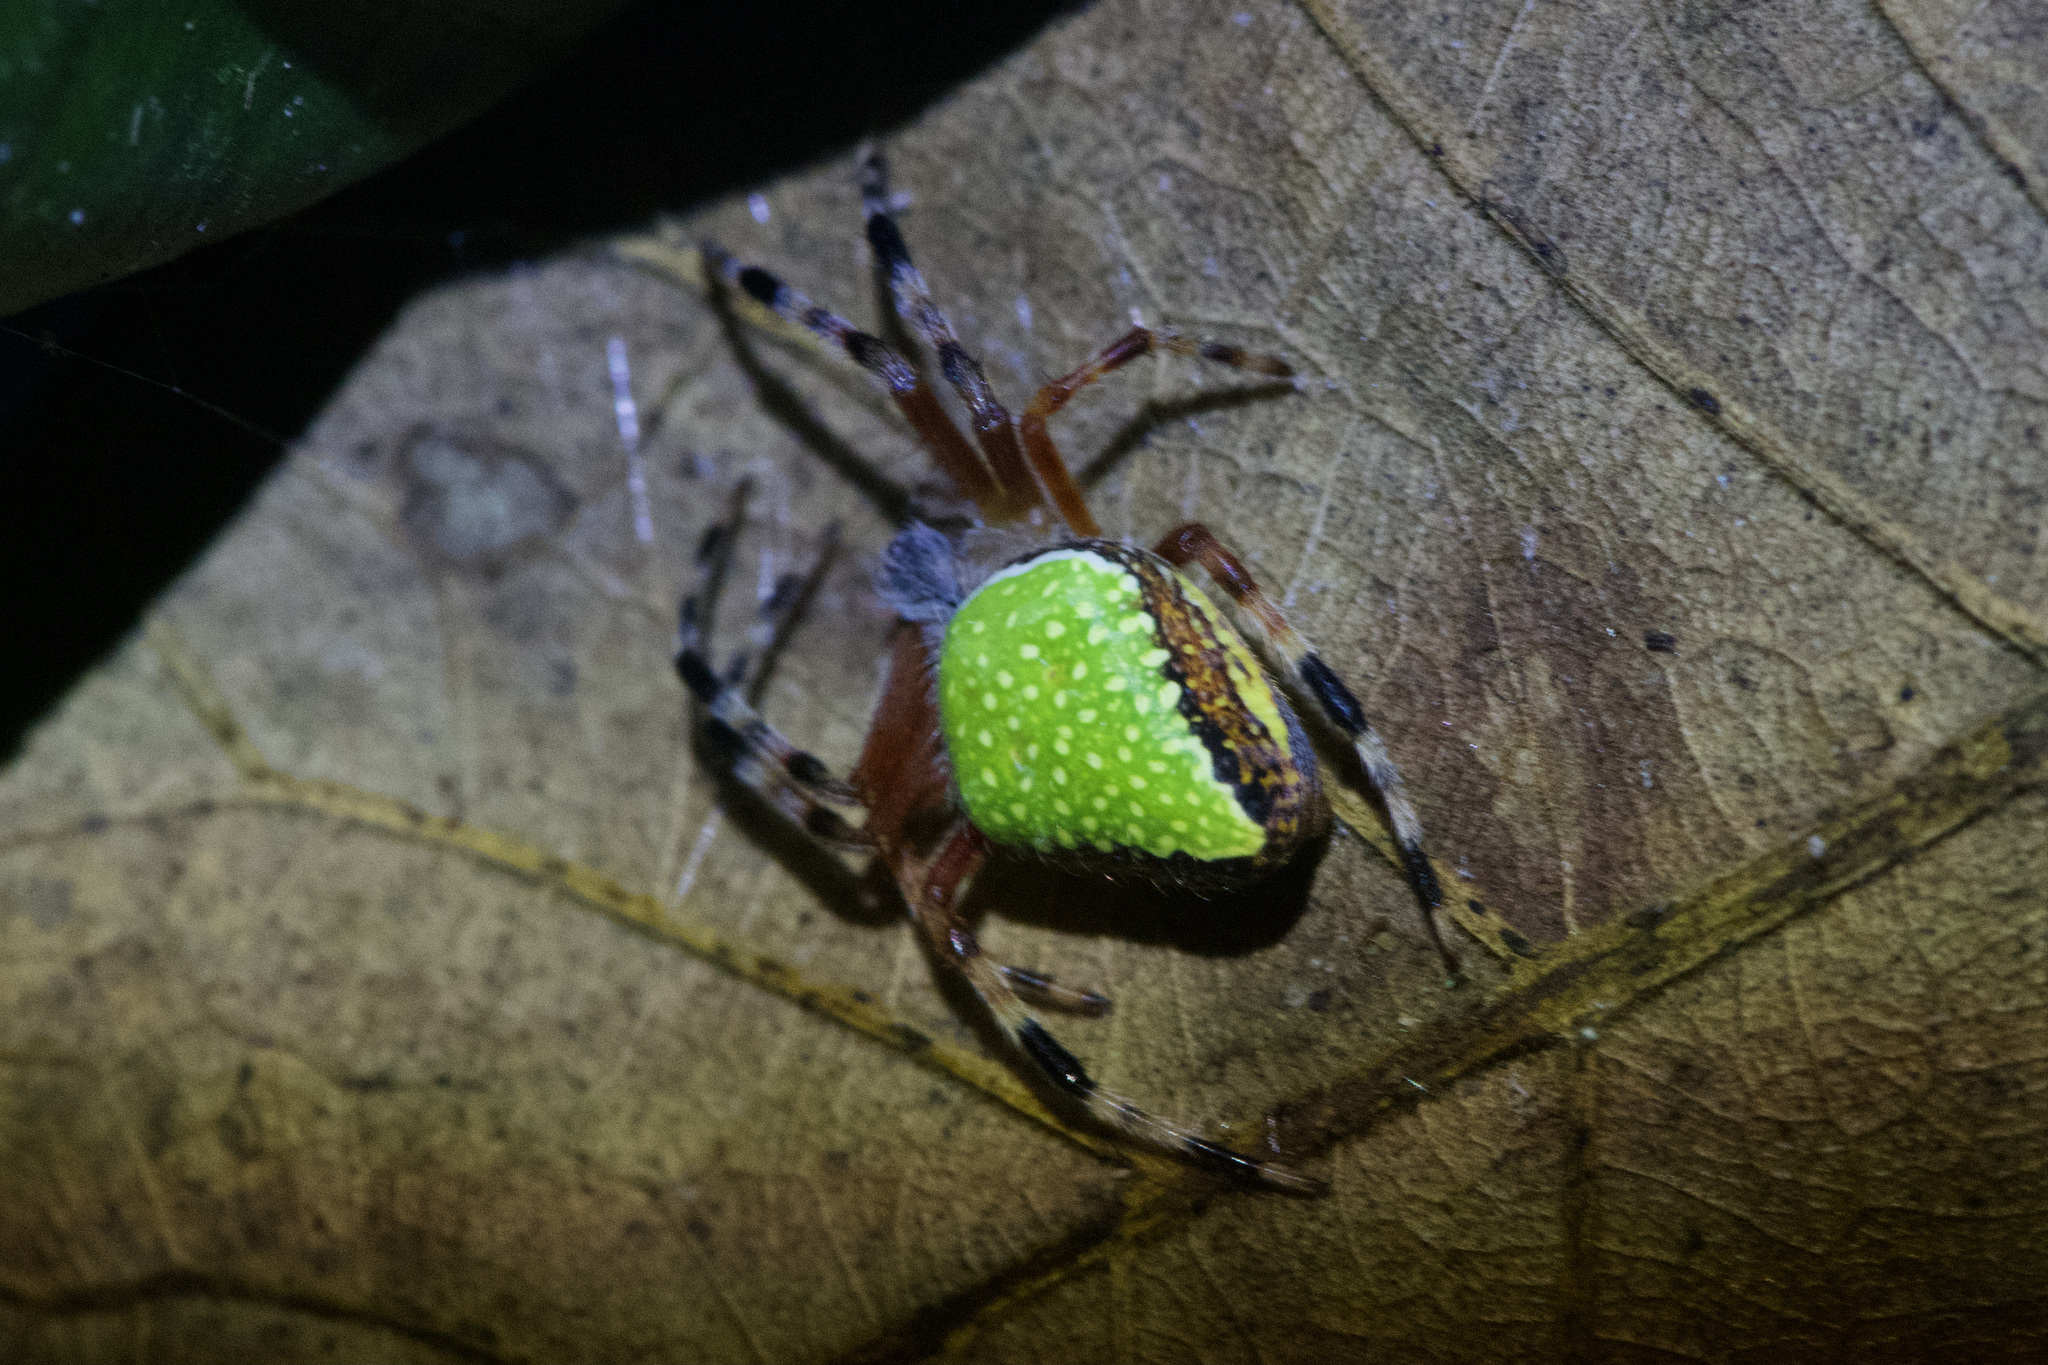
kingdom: Animalia
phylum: Arthropoda
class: Arachnida
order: Araneae
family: Araneidae
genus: Eriophora
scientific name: Eriophora nephiloides
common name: Orb weavers
